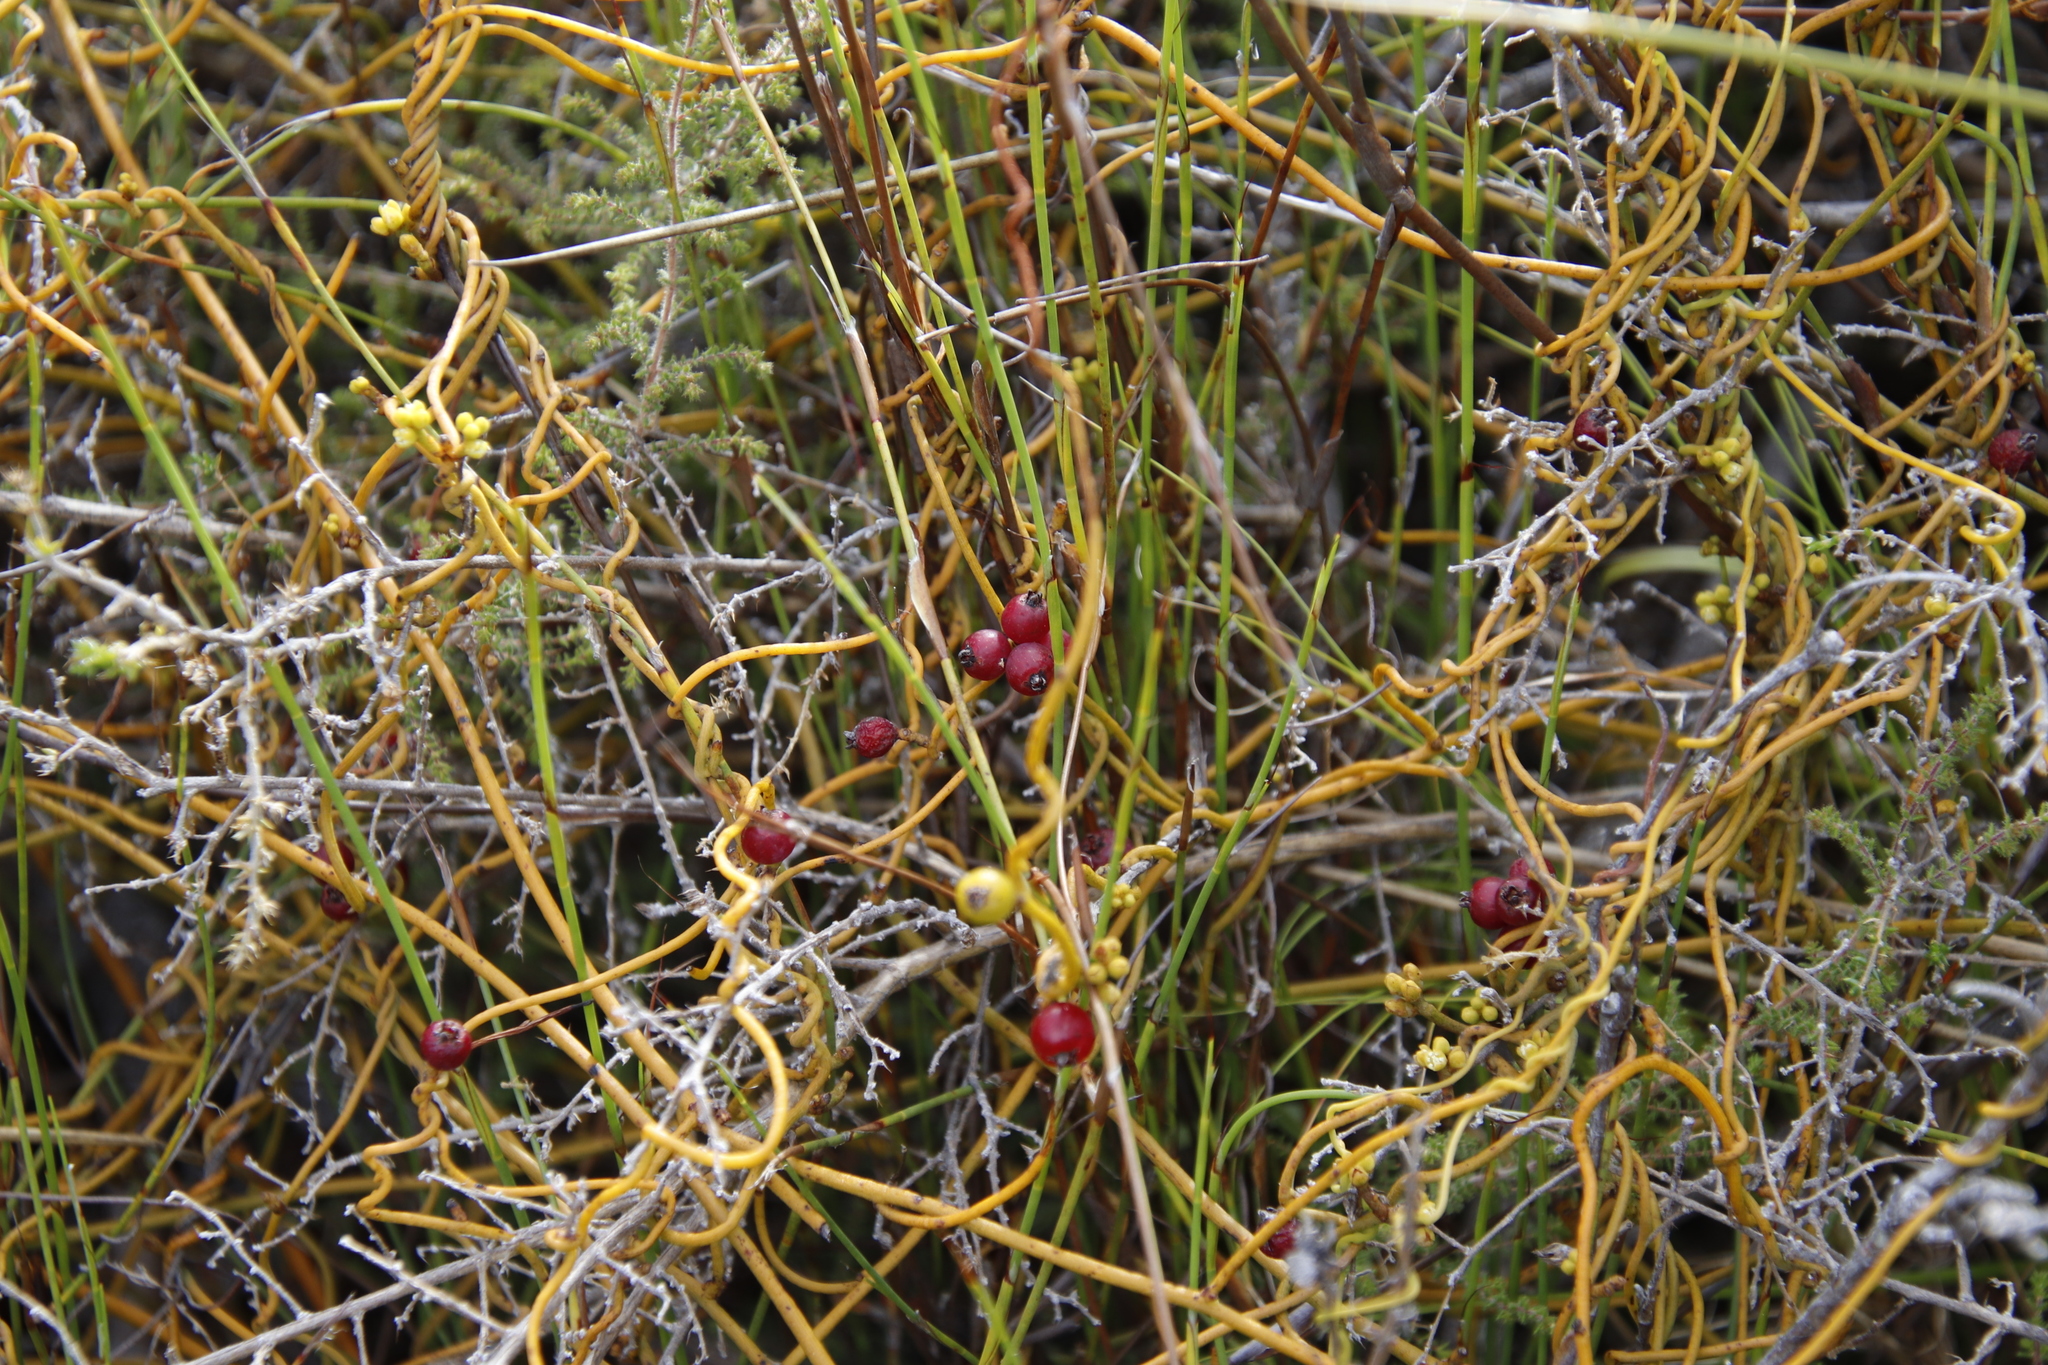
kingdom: Plantae
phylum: Tracheophyta
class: Magnoliopsida
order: Laurales
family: Lauraceae
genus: Cassytha
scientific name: Cassytha ciliolata
